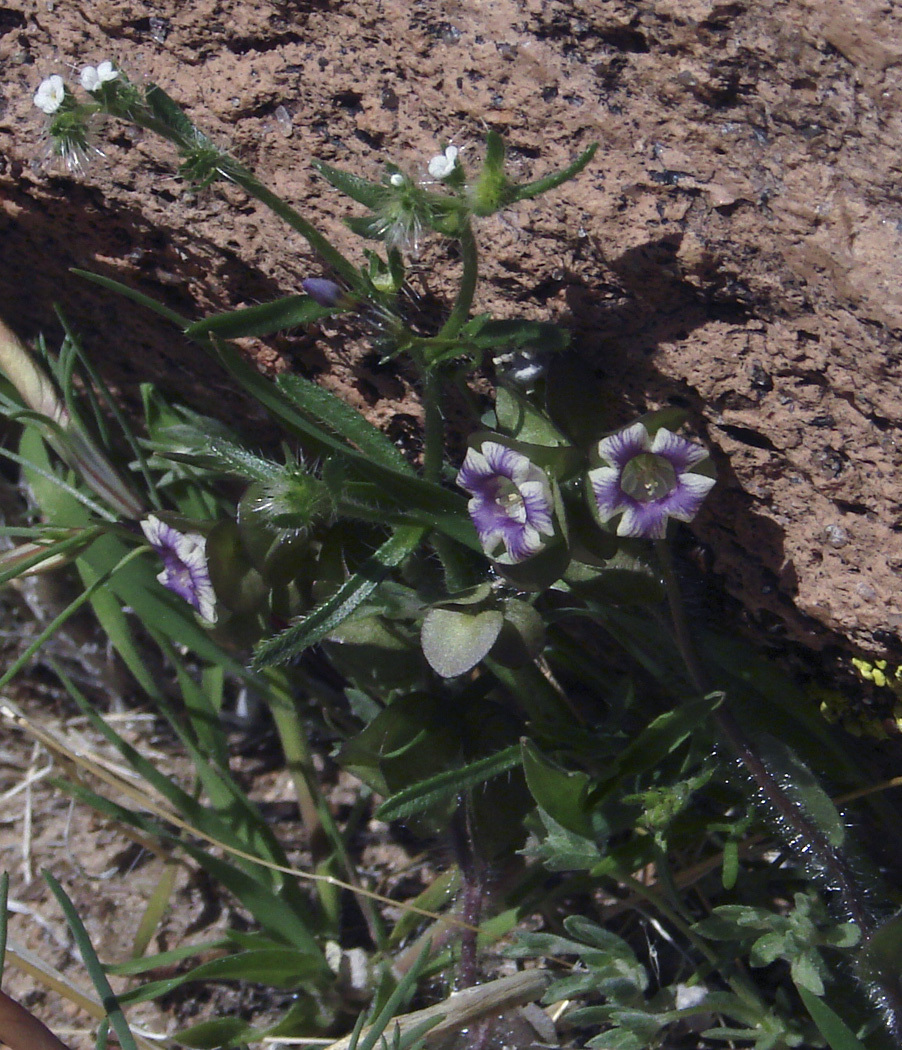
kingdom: Plantae
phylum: Tracheophyta
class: Magnoliopsida
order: Boraginales
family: Hydrophyllaceae
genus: Tricardia
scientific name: Tricardia watsonii
